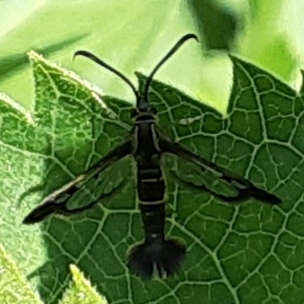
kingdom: Animalia
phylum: Arthropoda
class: Insecta
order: Lepidoptera
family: Sesiidae
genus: Carmenta
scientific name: Carmenta ithacae
